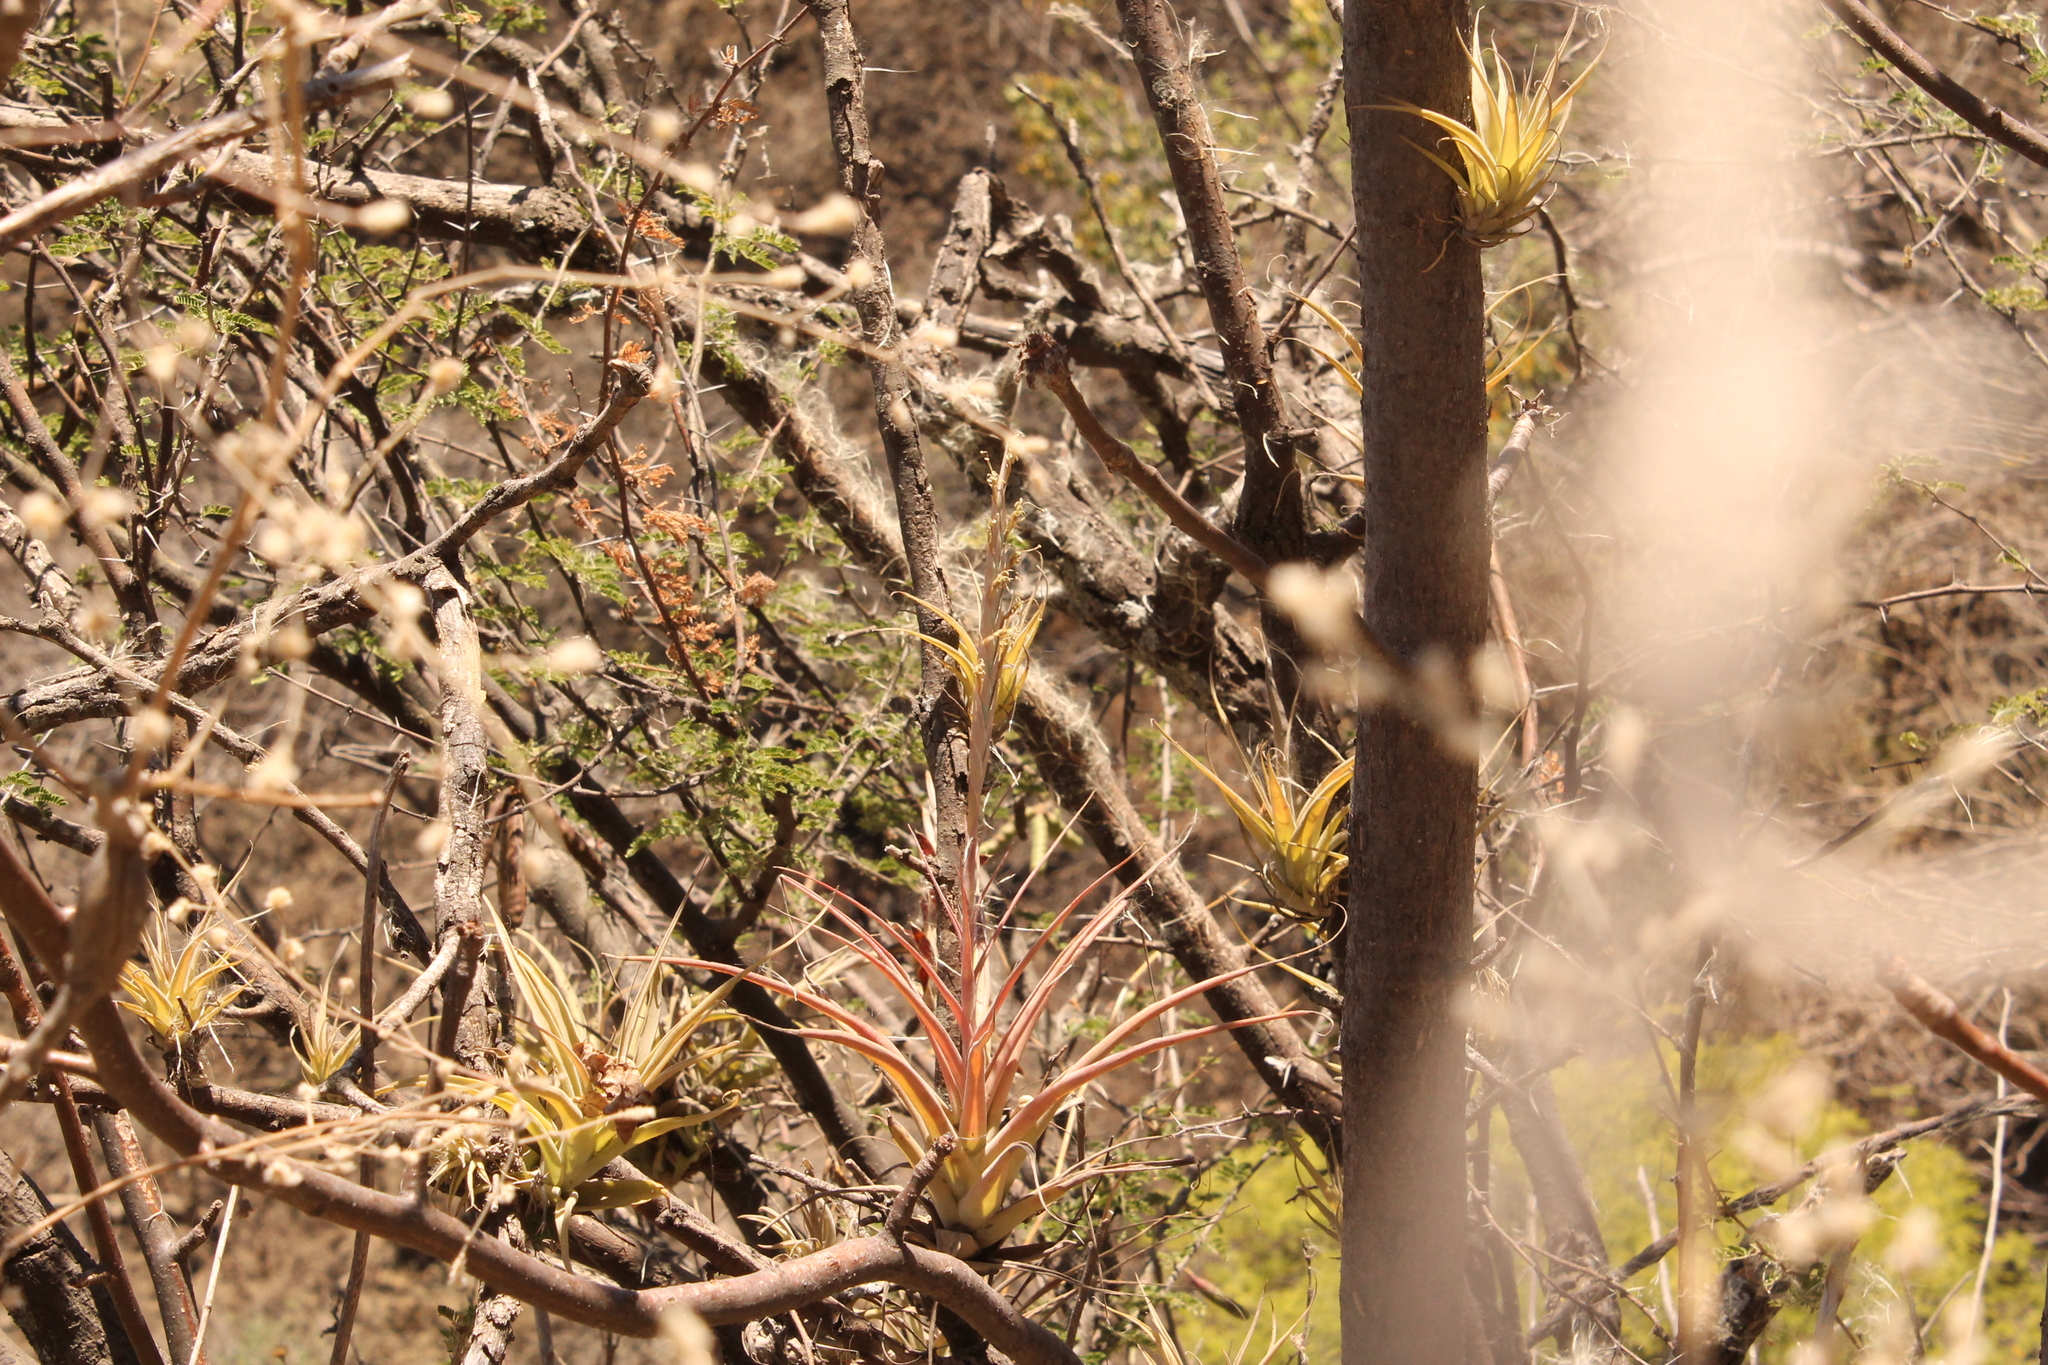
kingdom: Plantae
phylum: Tracheophyta
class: Liliopsida
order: Poales
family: Bromeliaceae
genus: Tillandsia
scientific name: Tillandsia achyrostachys
